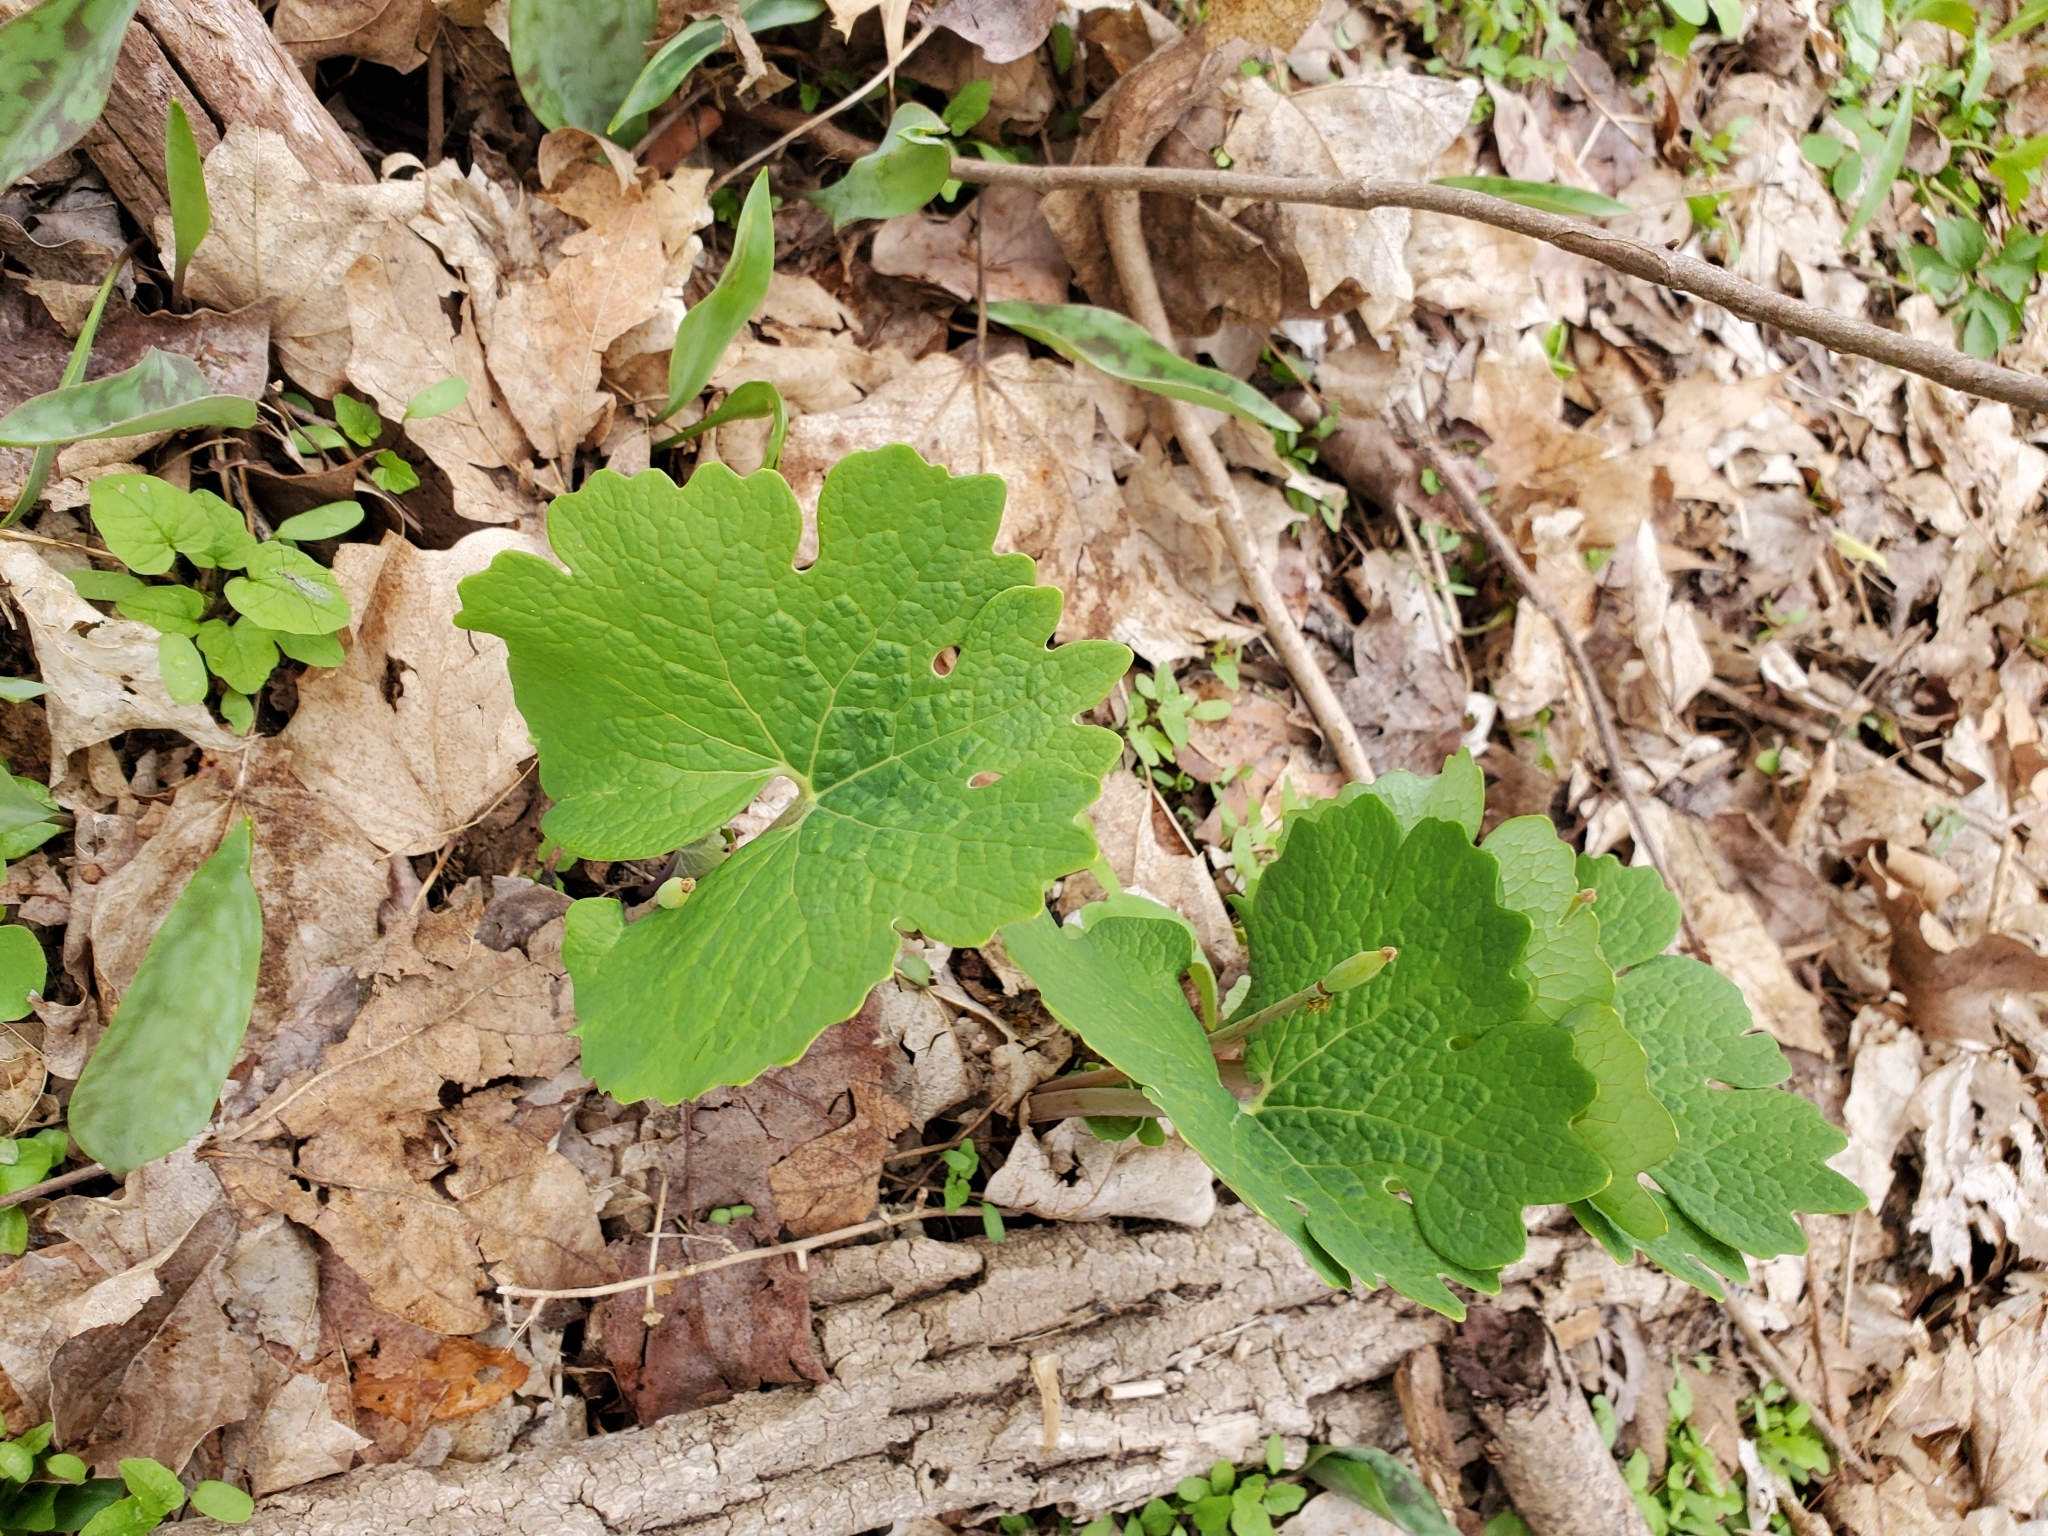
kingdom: Plantae
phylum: Tracheophyta
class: Magnoliopsida
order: Ranunculales
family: Papaveraceae
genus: Sanguinaria
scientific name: Sanguinaria canadensis
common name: Bloodroot
